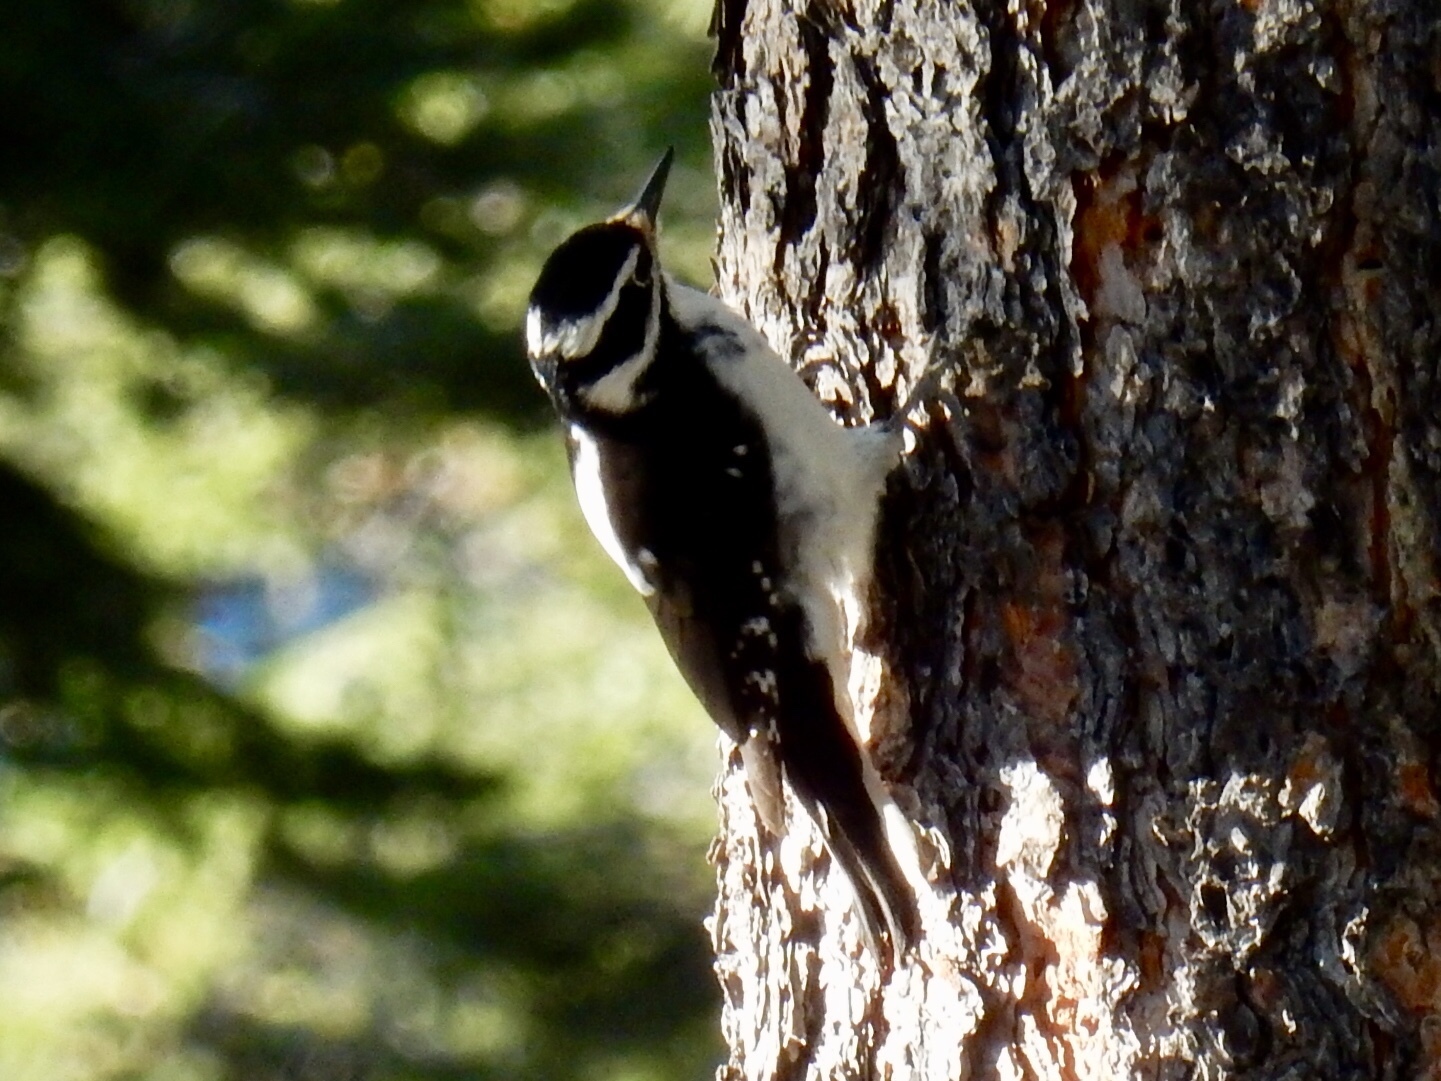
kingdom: Animalia
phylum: Chordata
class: Aves
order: Piciformes
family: Picidae
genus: Leuconotopicus
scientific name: Leuconotopicus villosus
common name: Hairy woodpecker
